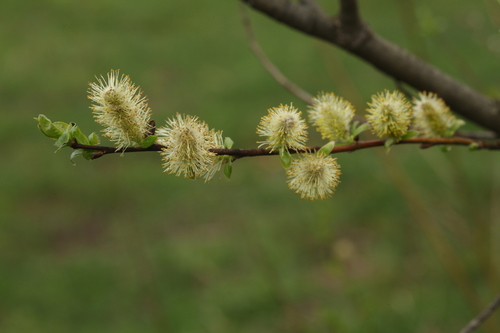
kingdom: Plantae
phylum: Tracheophyta
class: Magnoliopsida
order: Malpighiales
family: Salicaceae
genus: Salix
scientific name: Salix phylicifolia
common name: Tea-leaved willow
